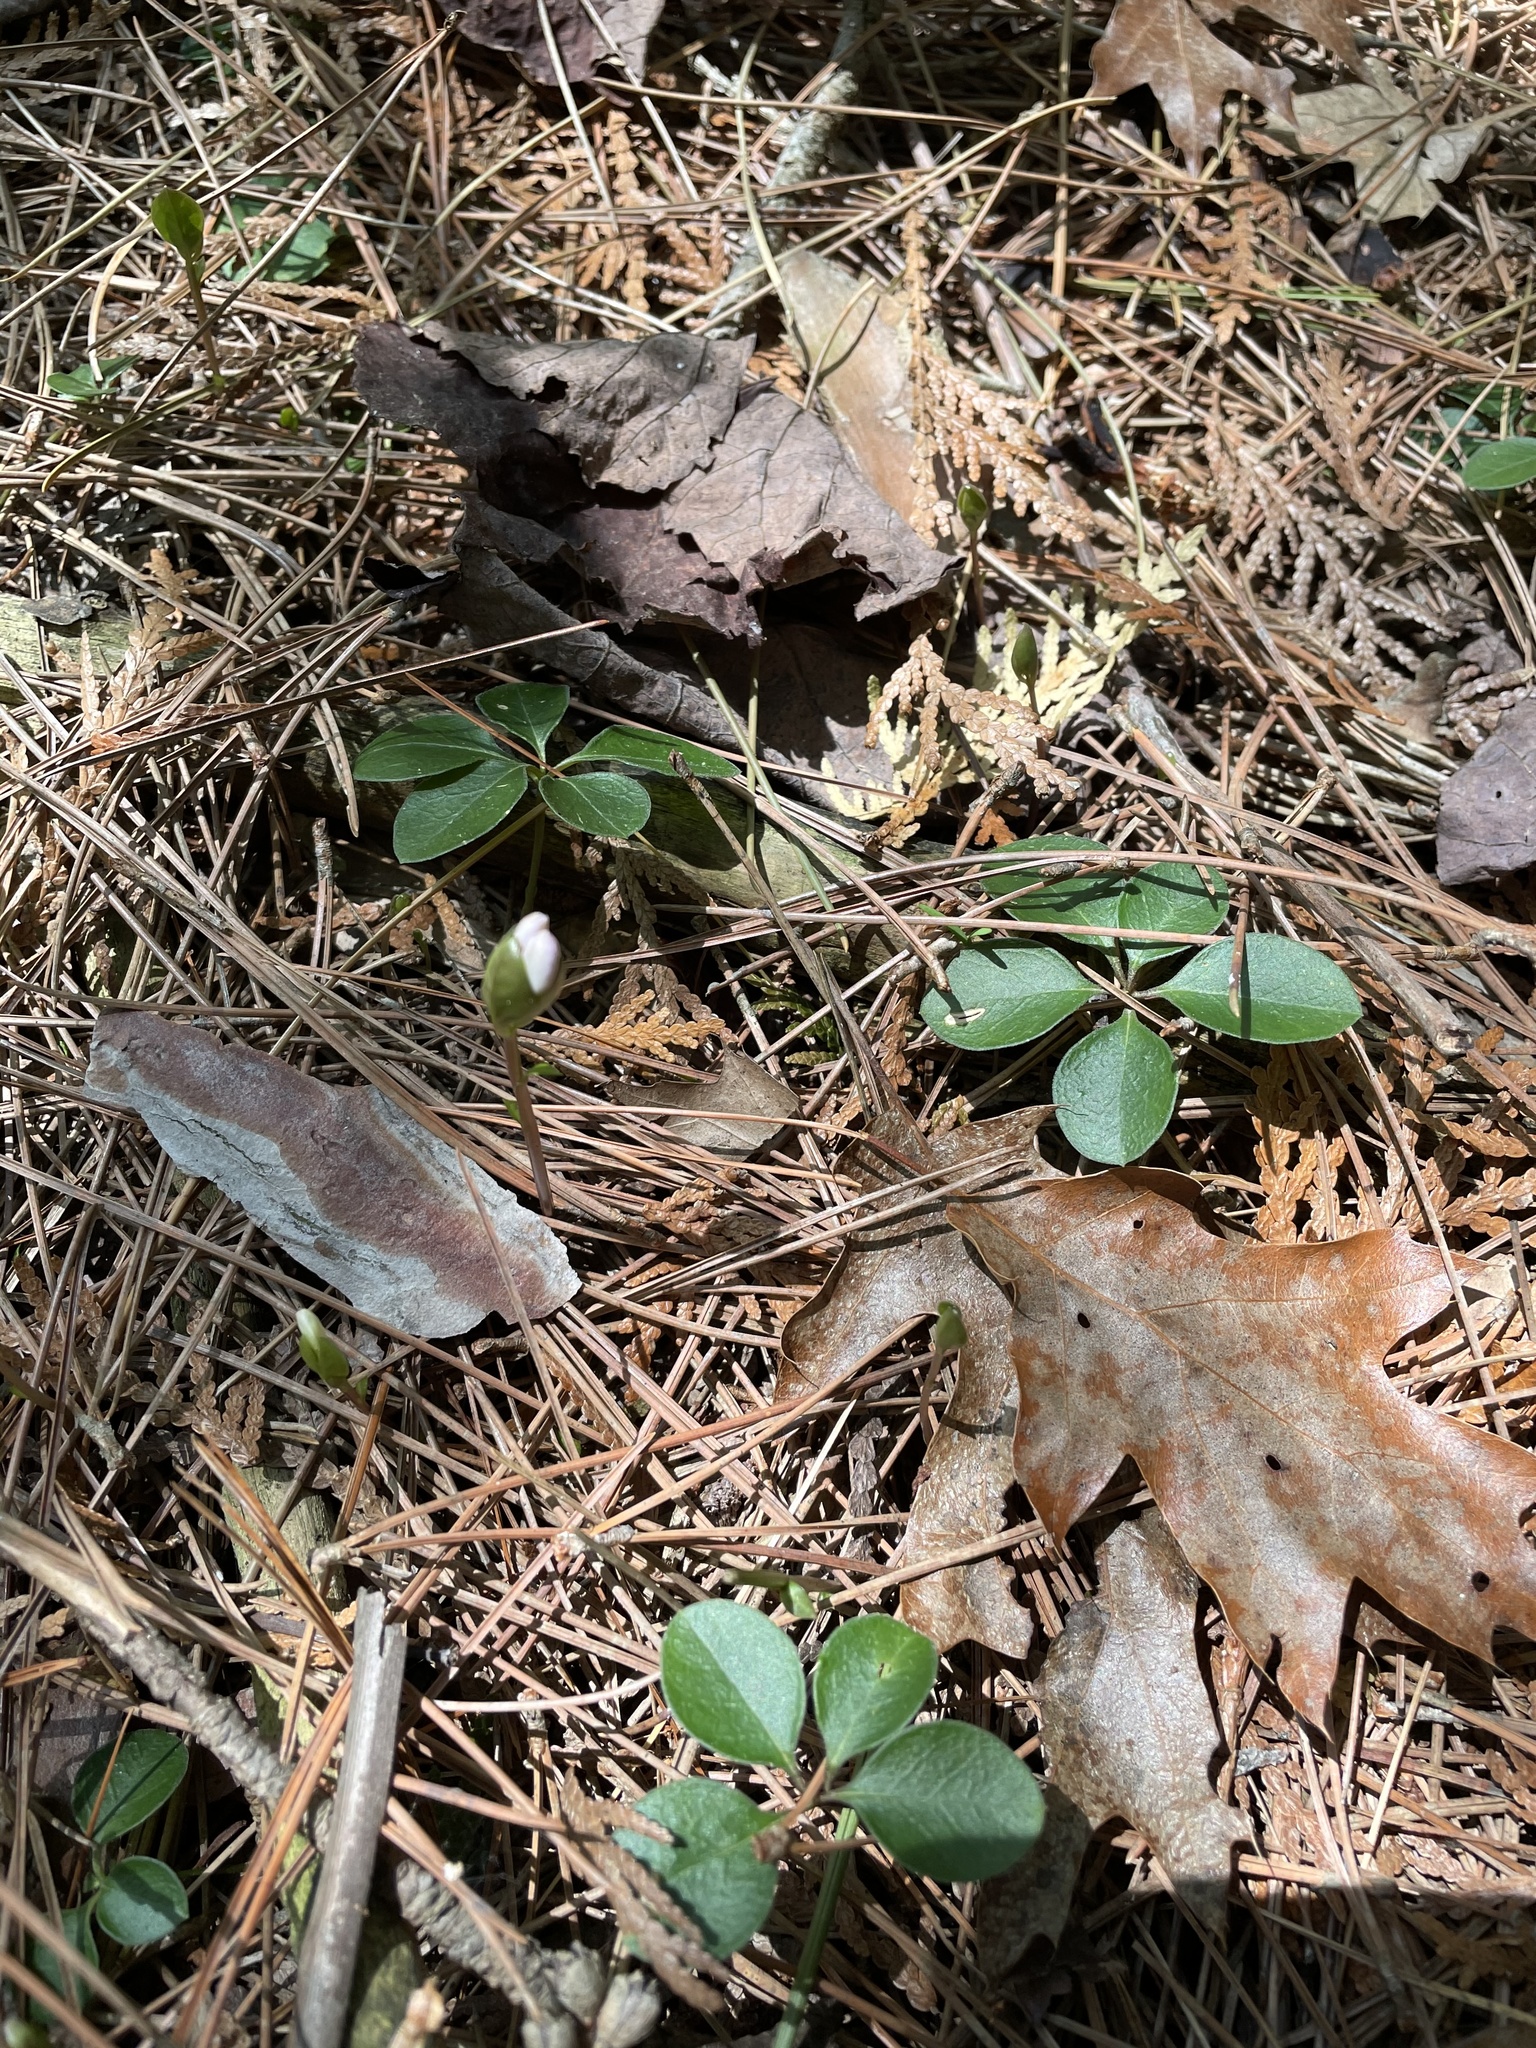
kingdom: Plantae
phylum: Tracheophyta
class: Magnoliopsida
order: Fabales
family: Polygalaceae
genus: Polygaloides
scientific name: Polygaloides paucifolia
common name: Bird-on-the-wing
